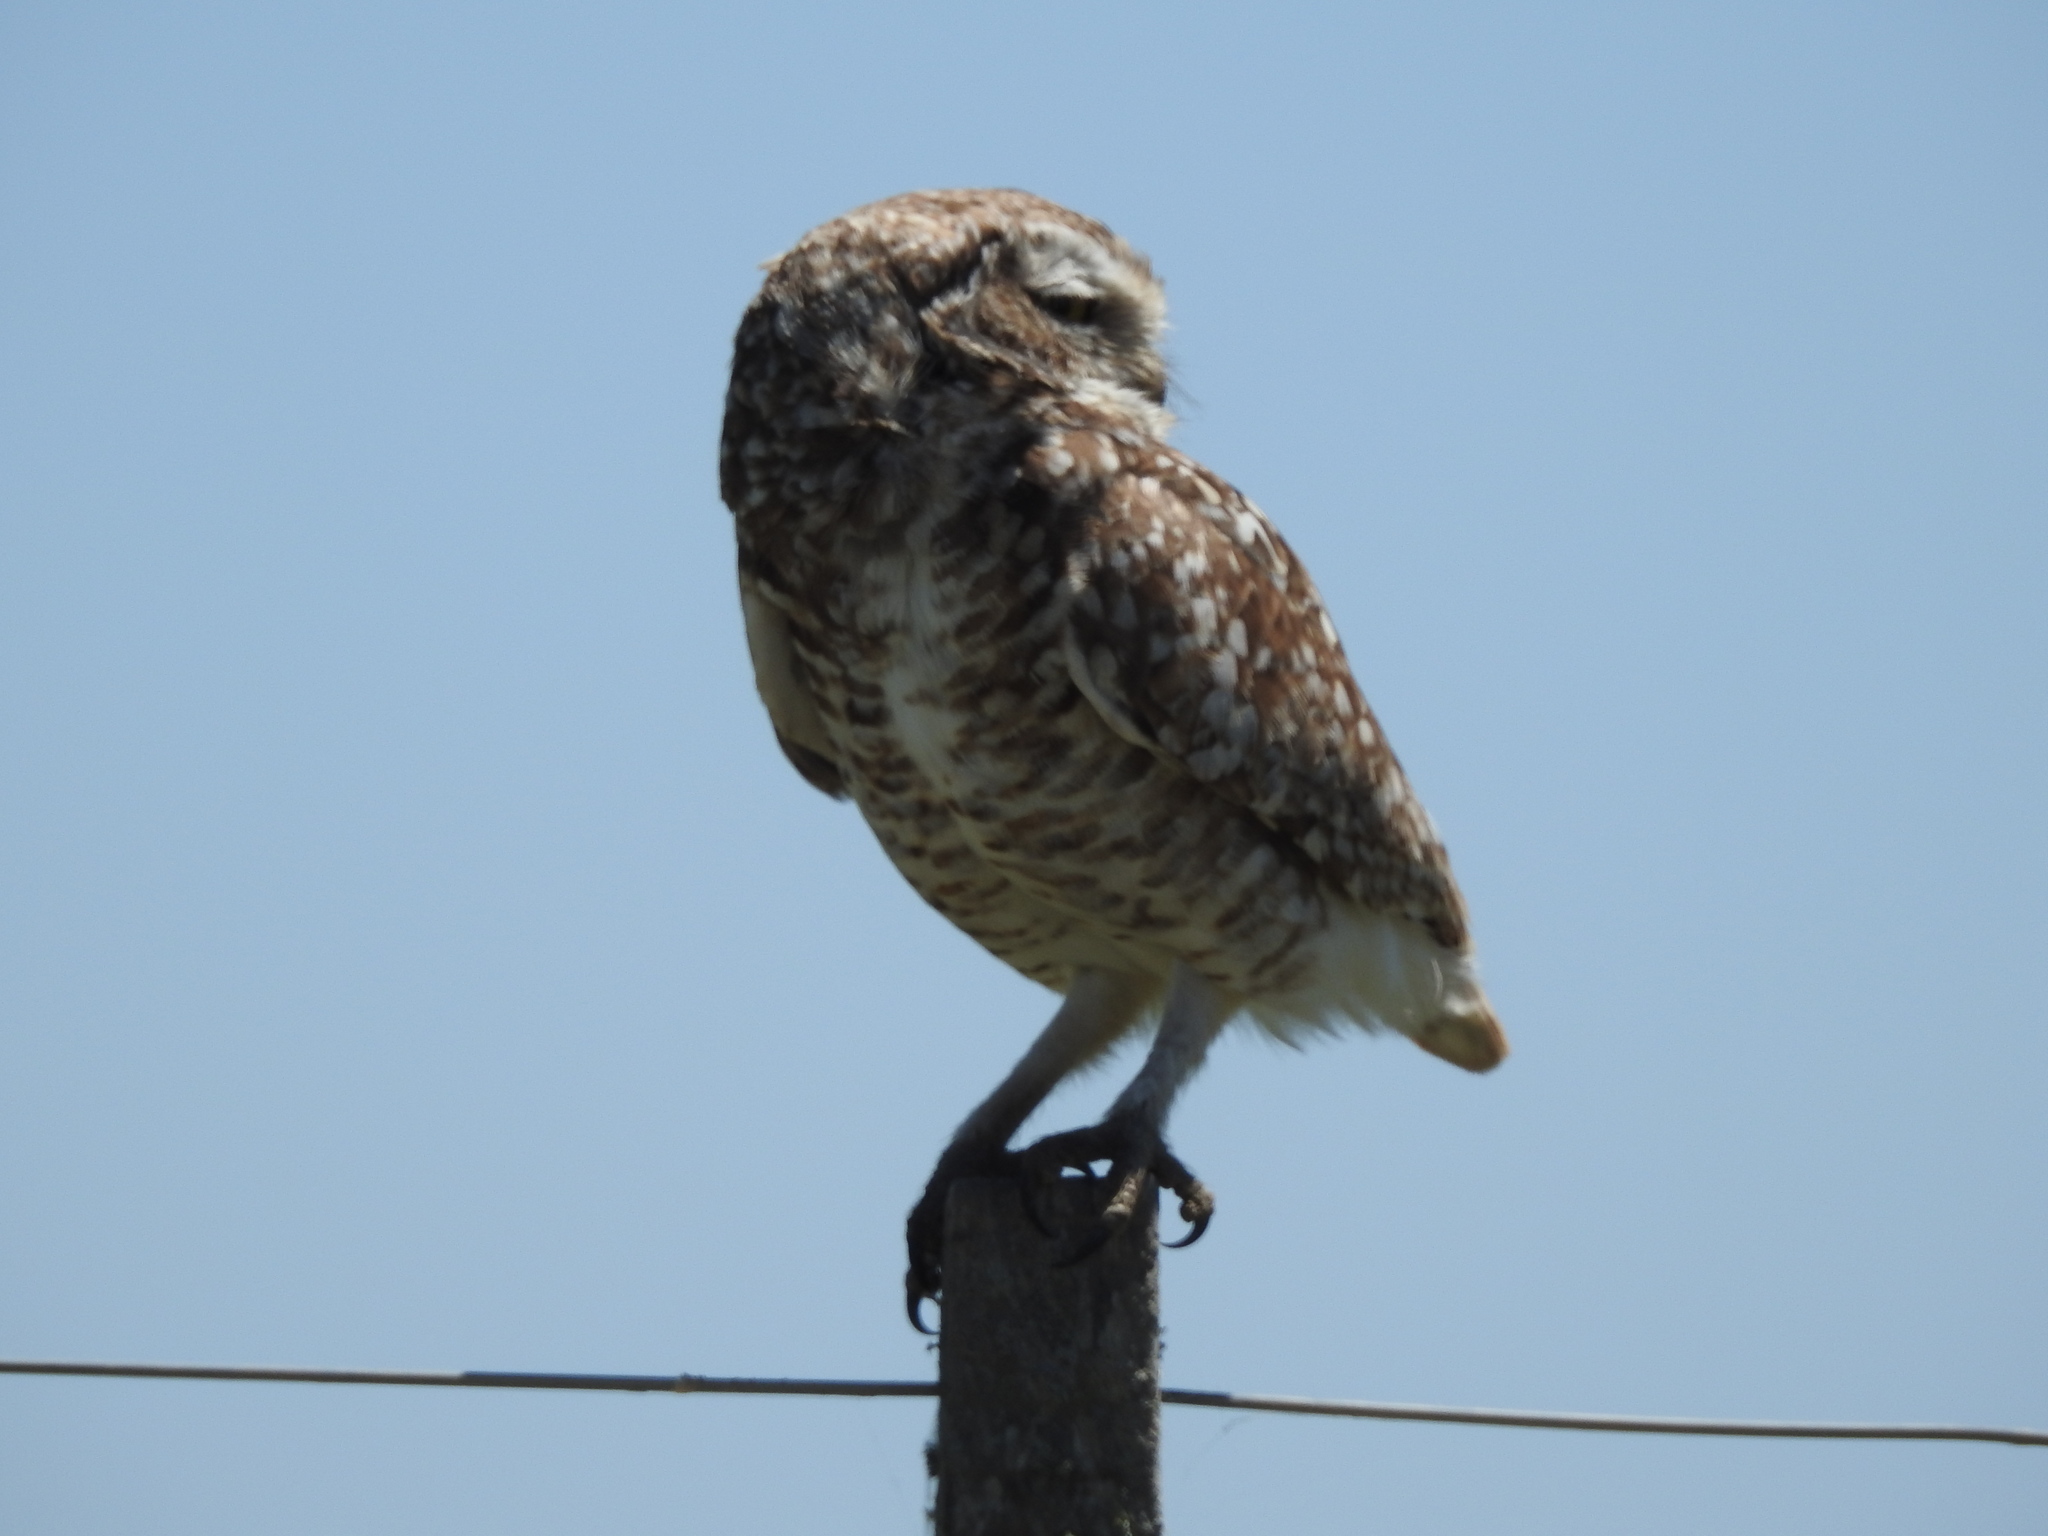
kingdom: Animalia
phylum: Chordata
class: Aves
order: Strigiformes
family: Strigidae
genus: Athene
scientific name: Athene cunicularia
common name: Burrowing owl
